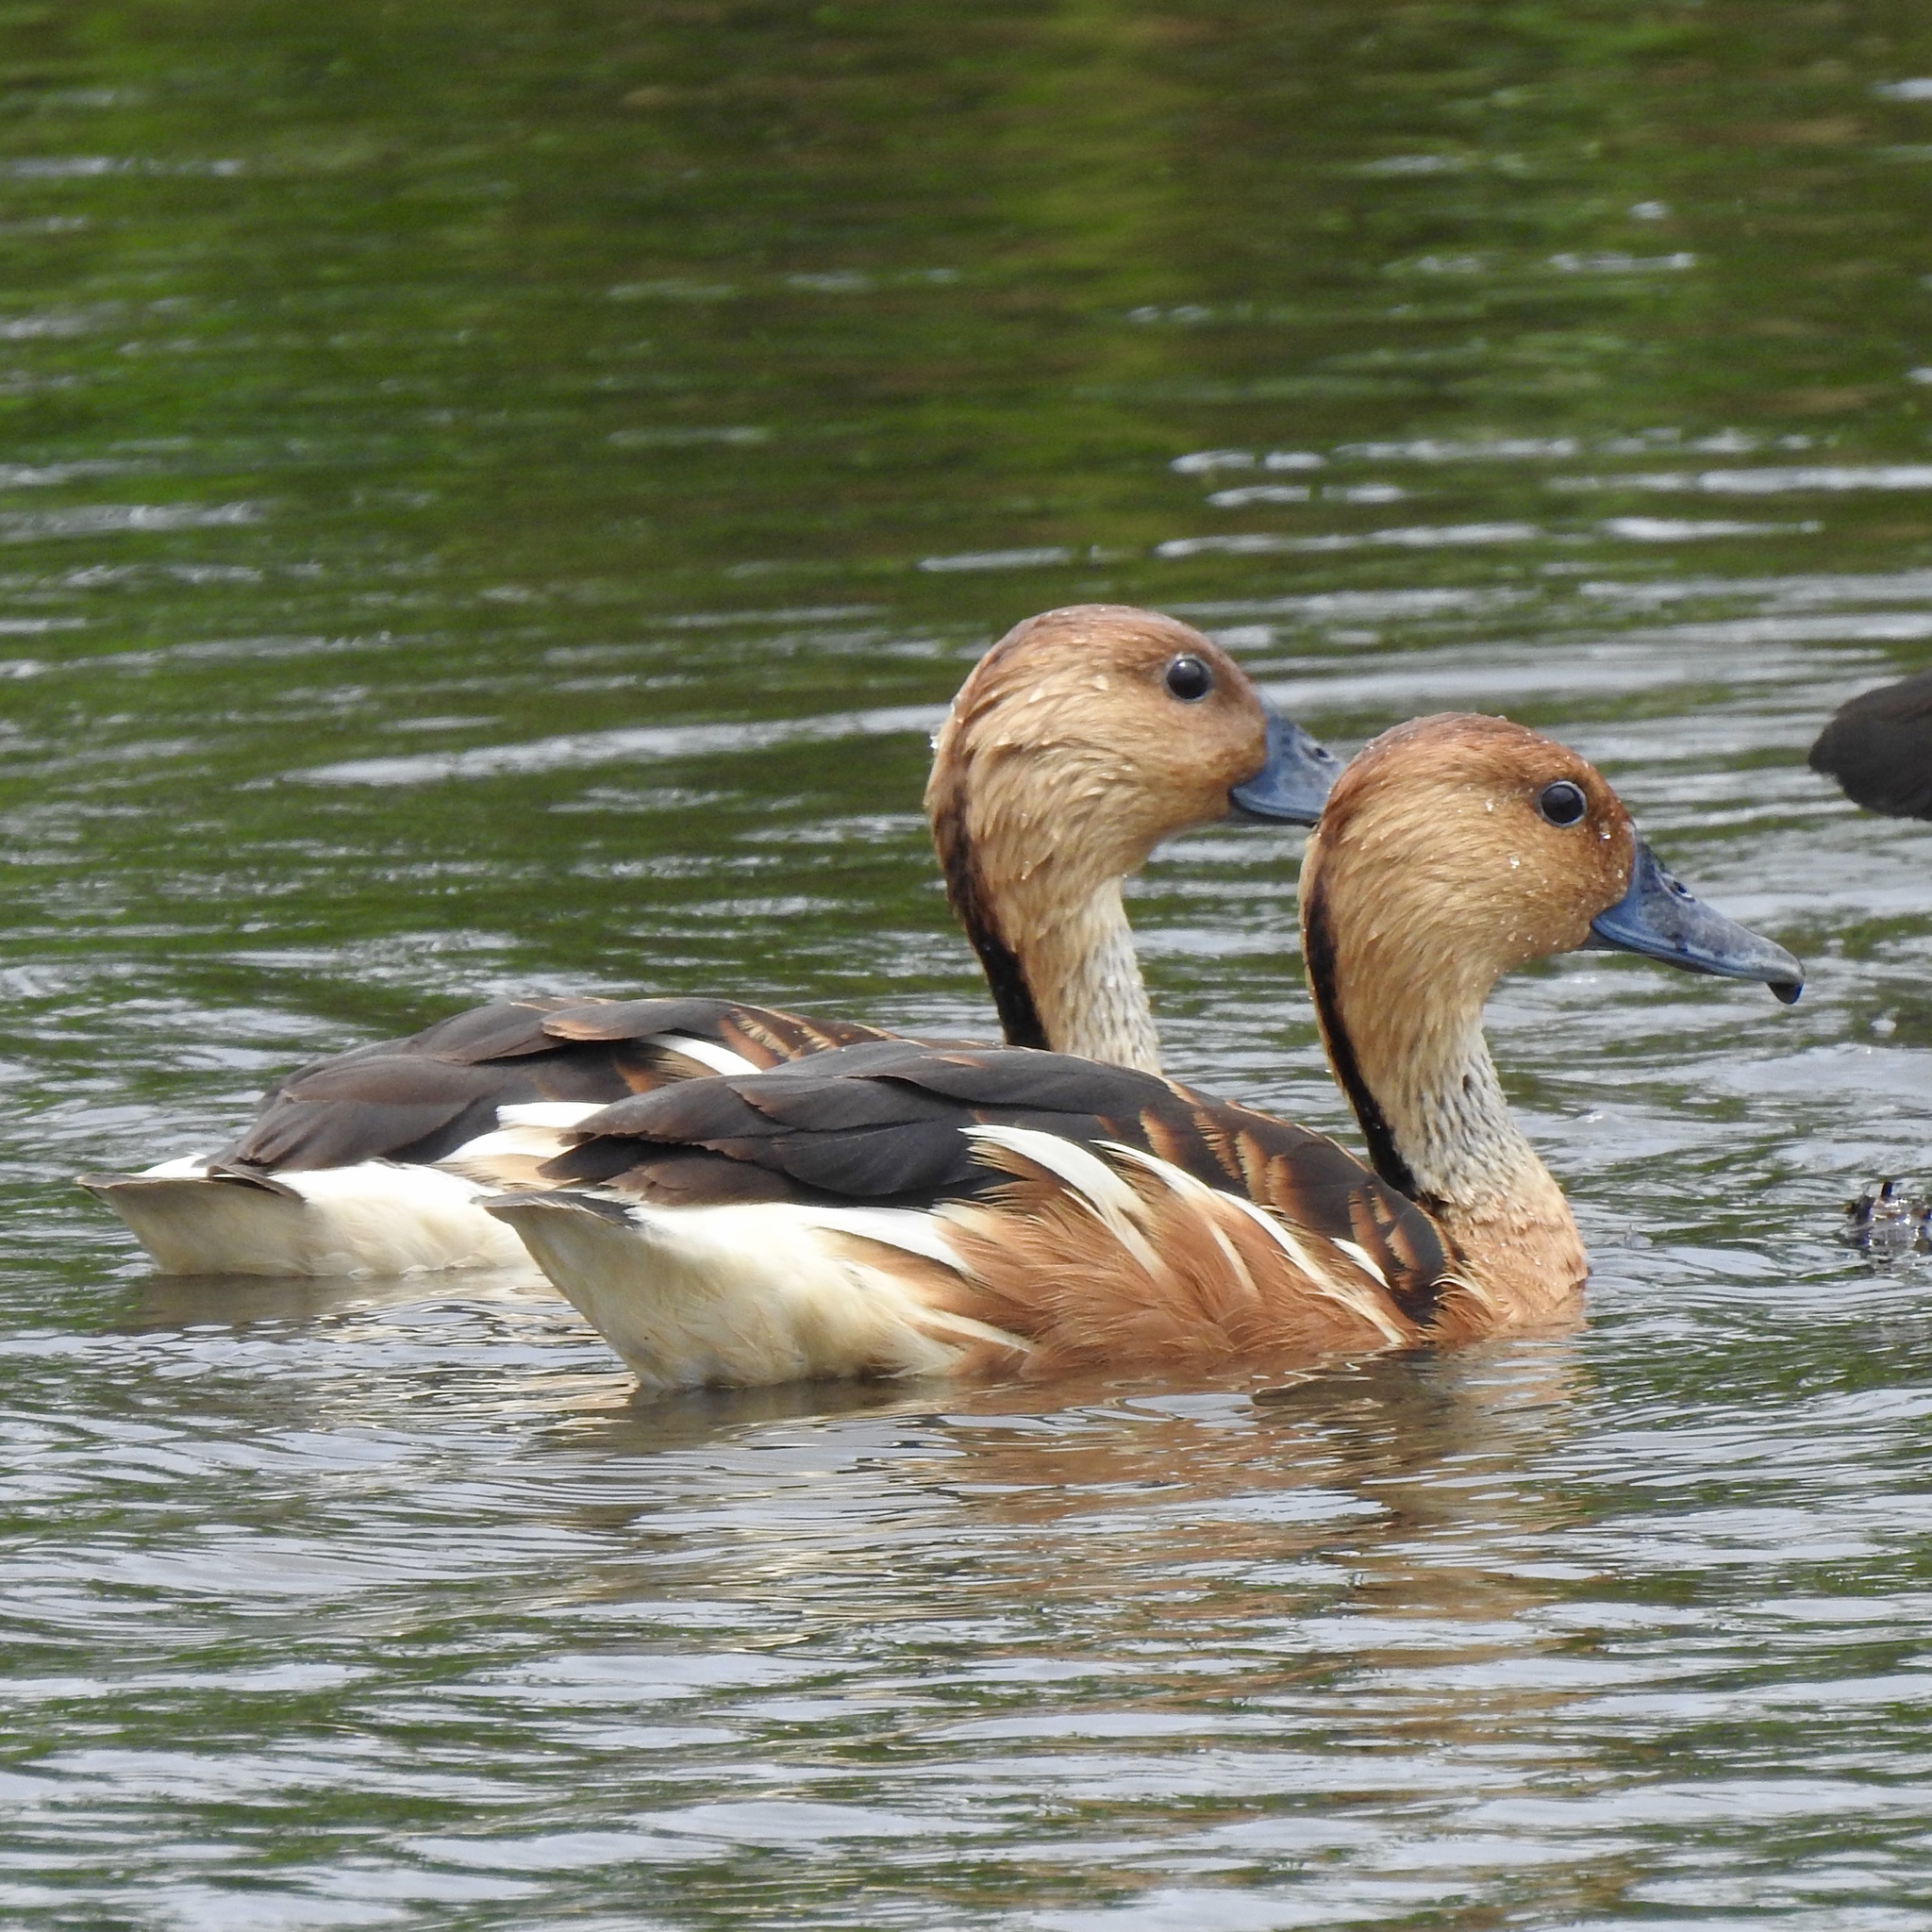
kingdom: Animalia
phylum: Chordata
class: Aves
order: Anseriformes
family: Anatidae
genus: Dendrocygna
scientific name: Dendrocygna bicolor
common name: Fulvous whistling duck
